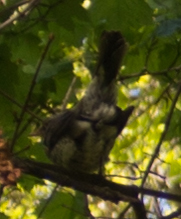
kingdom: Animalia
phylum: Chordata
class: Aves
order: Passeriformes
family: Turdidae
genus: Turdus
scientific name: Turdus pilaris
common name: Fieldfare
